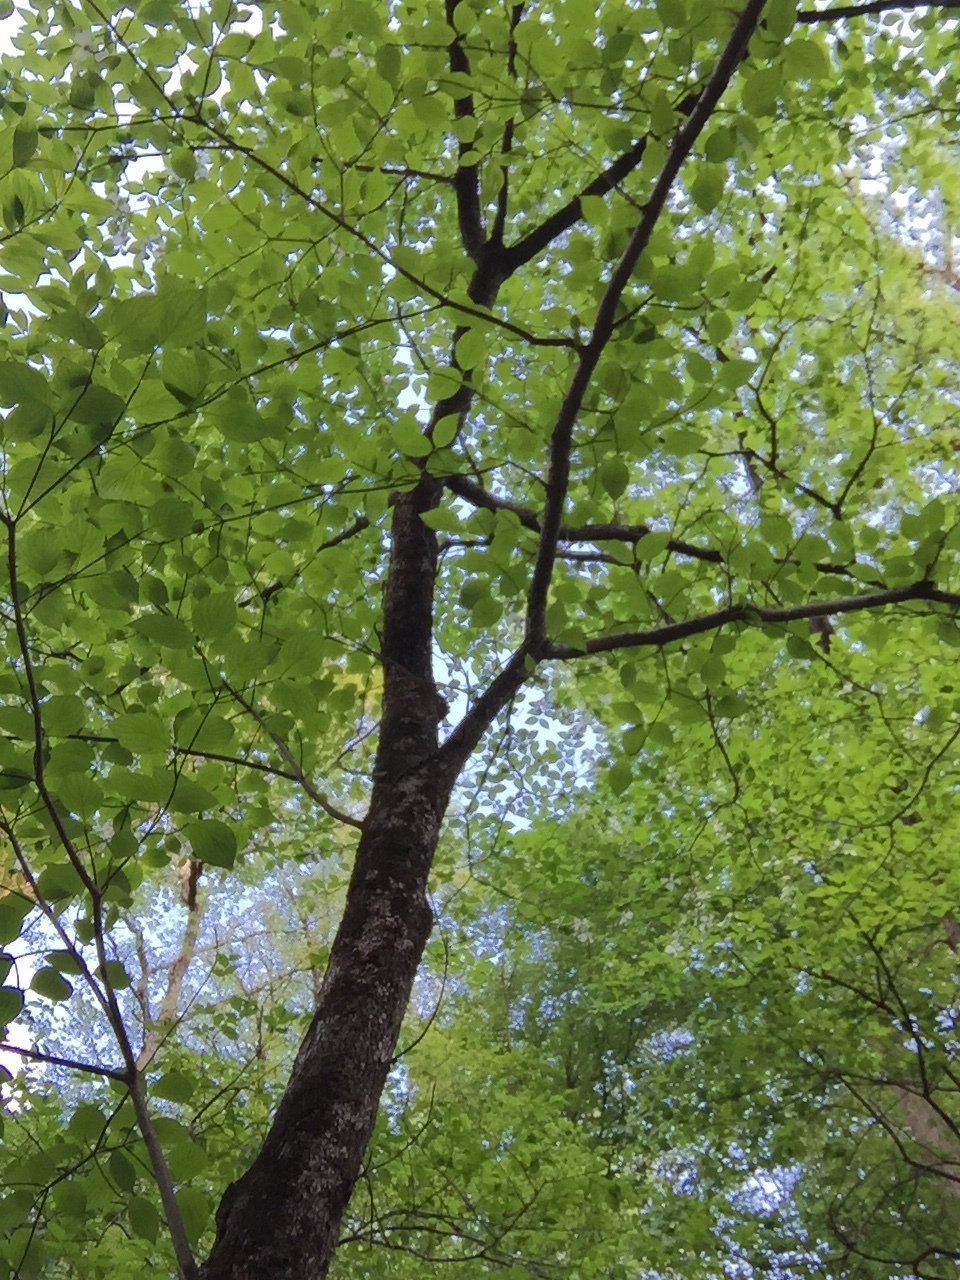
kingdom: Plantae
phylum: Tracheophyta
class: Magnoliopsida
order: Cornales
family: Cornaceae
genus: Cornus
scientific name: Cornus florida
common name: Flowering dogwood
